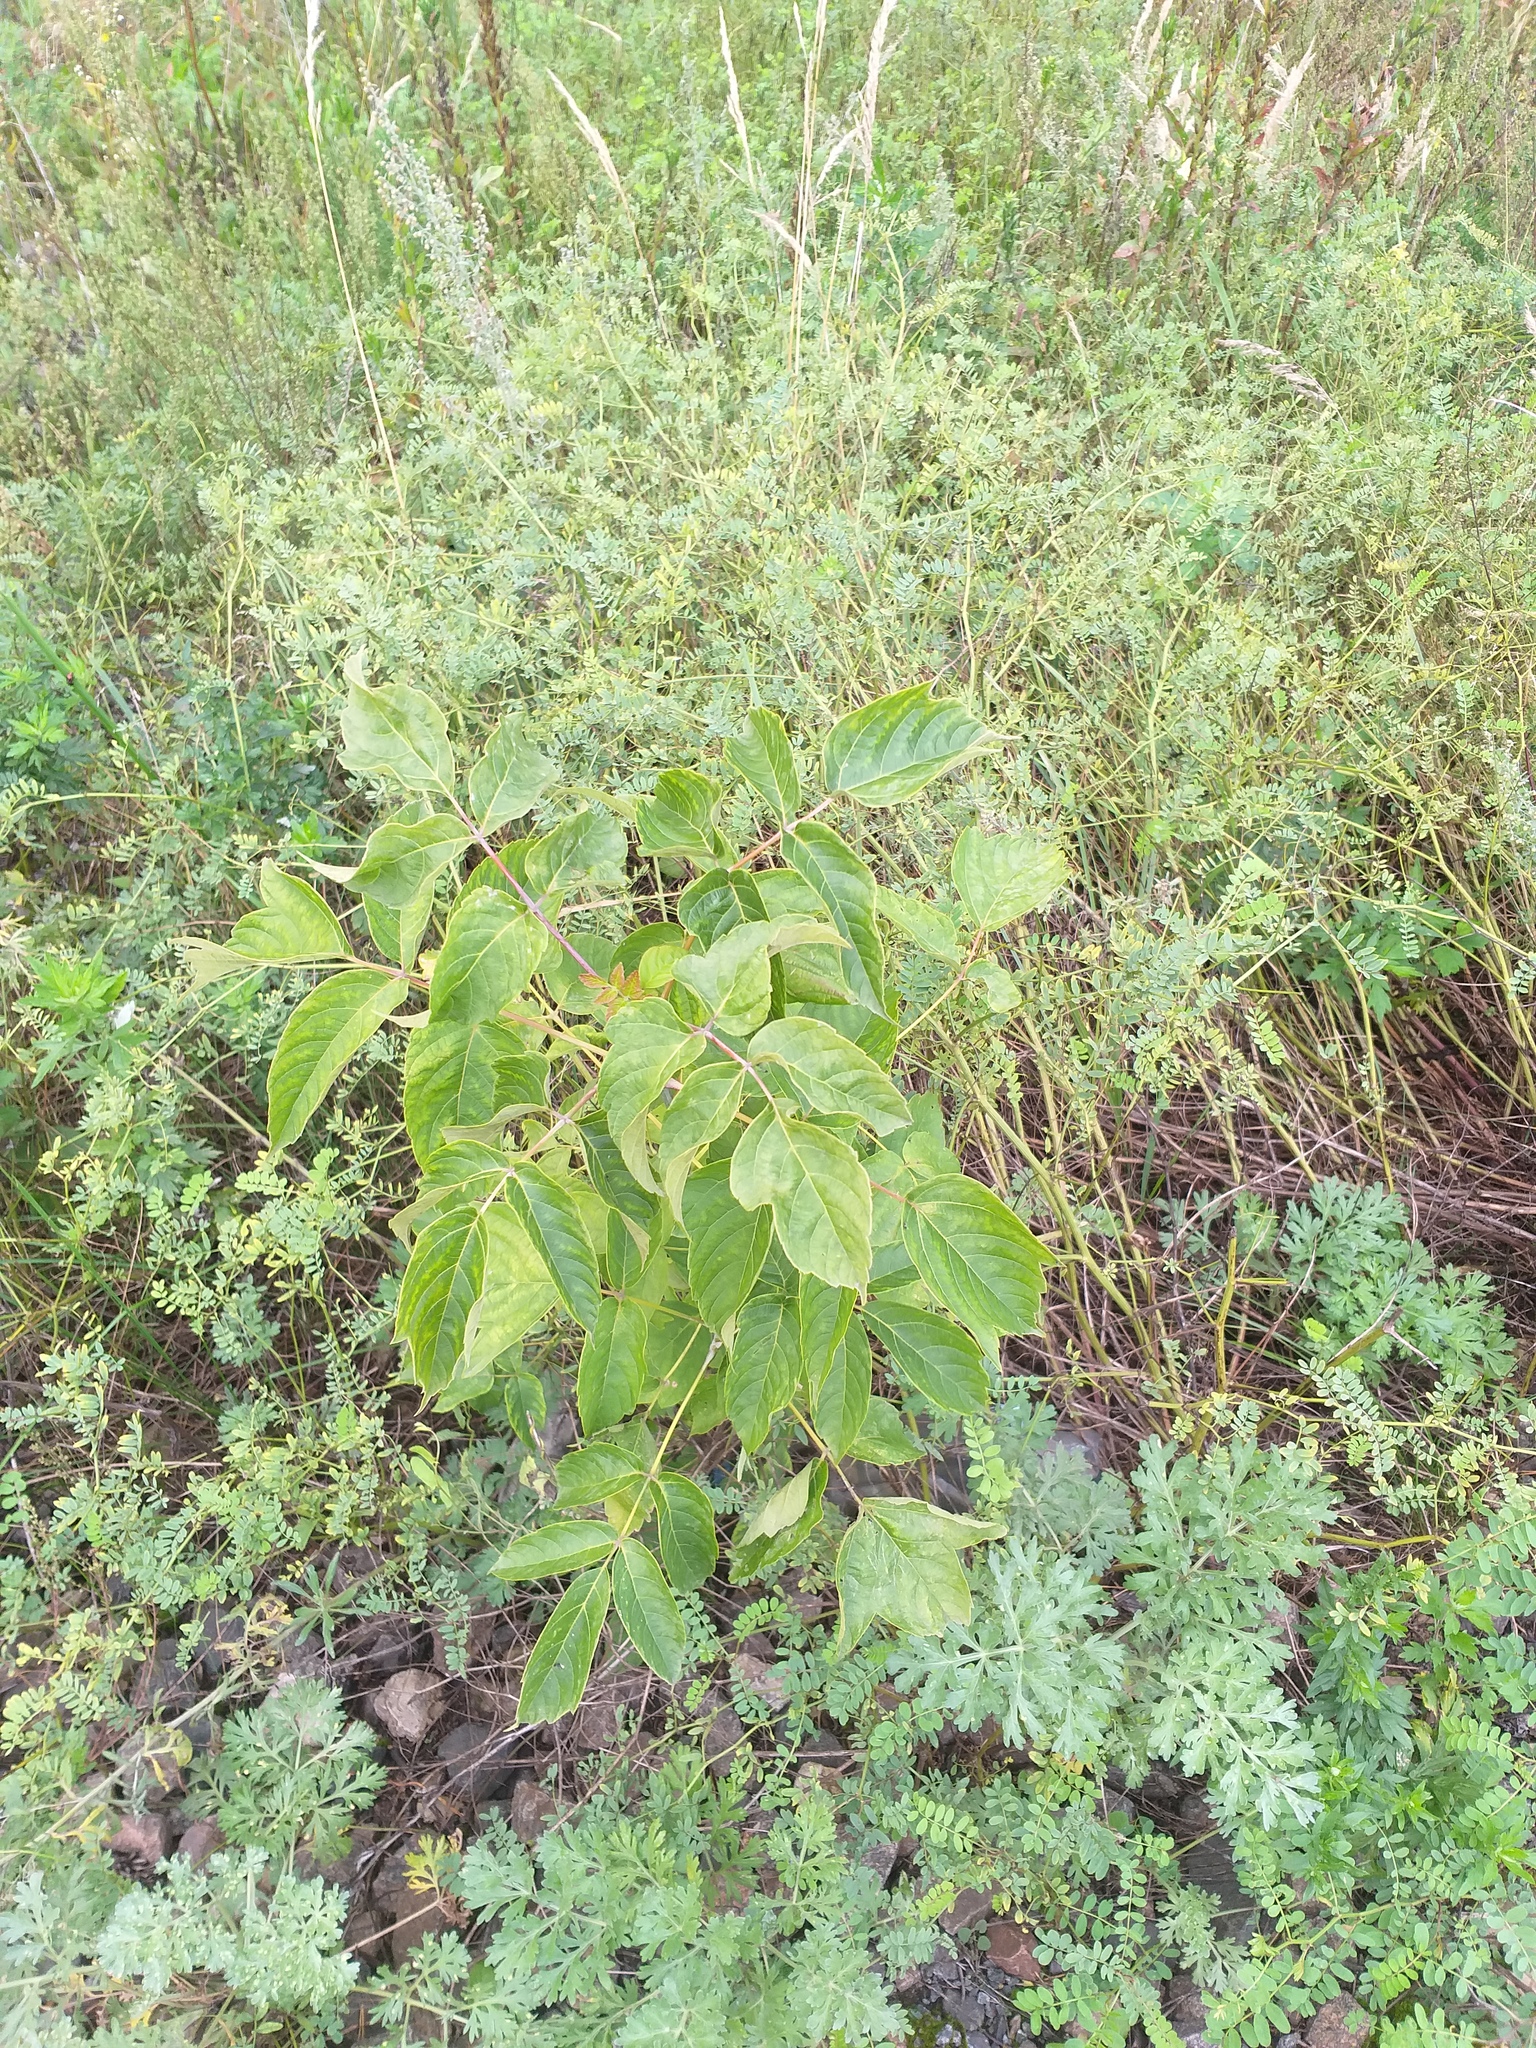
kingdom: Plantae
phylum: Tracheophyta
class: Magnoliopsida
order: Sapindales
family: Sapindaceae
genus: Acer
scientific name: Acer negundo
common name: Ashleaf maple
